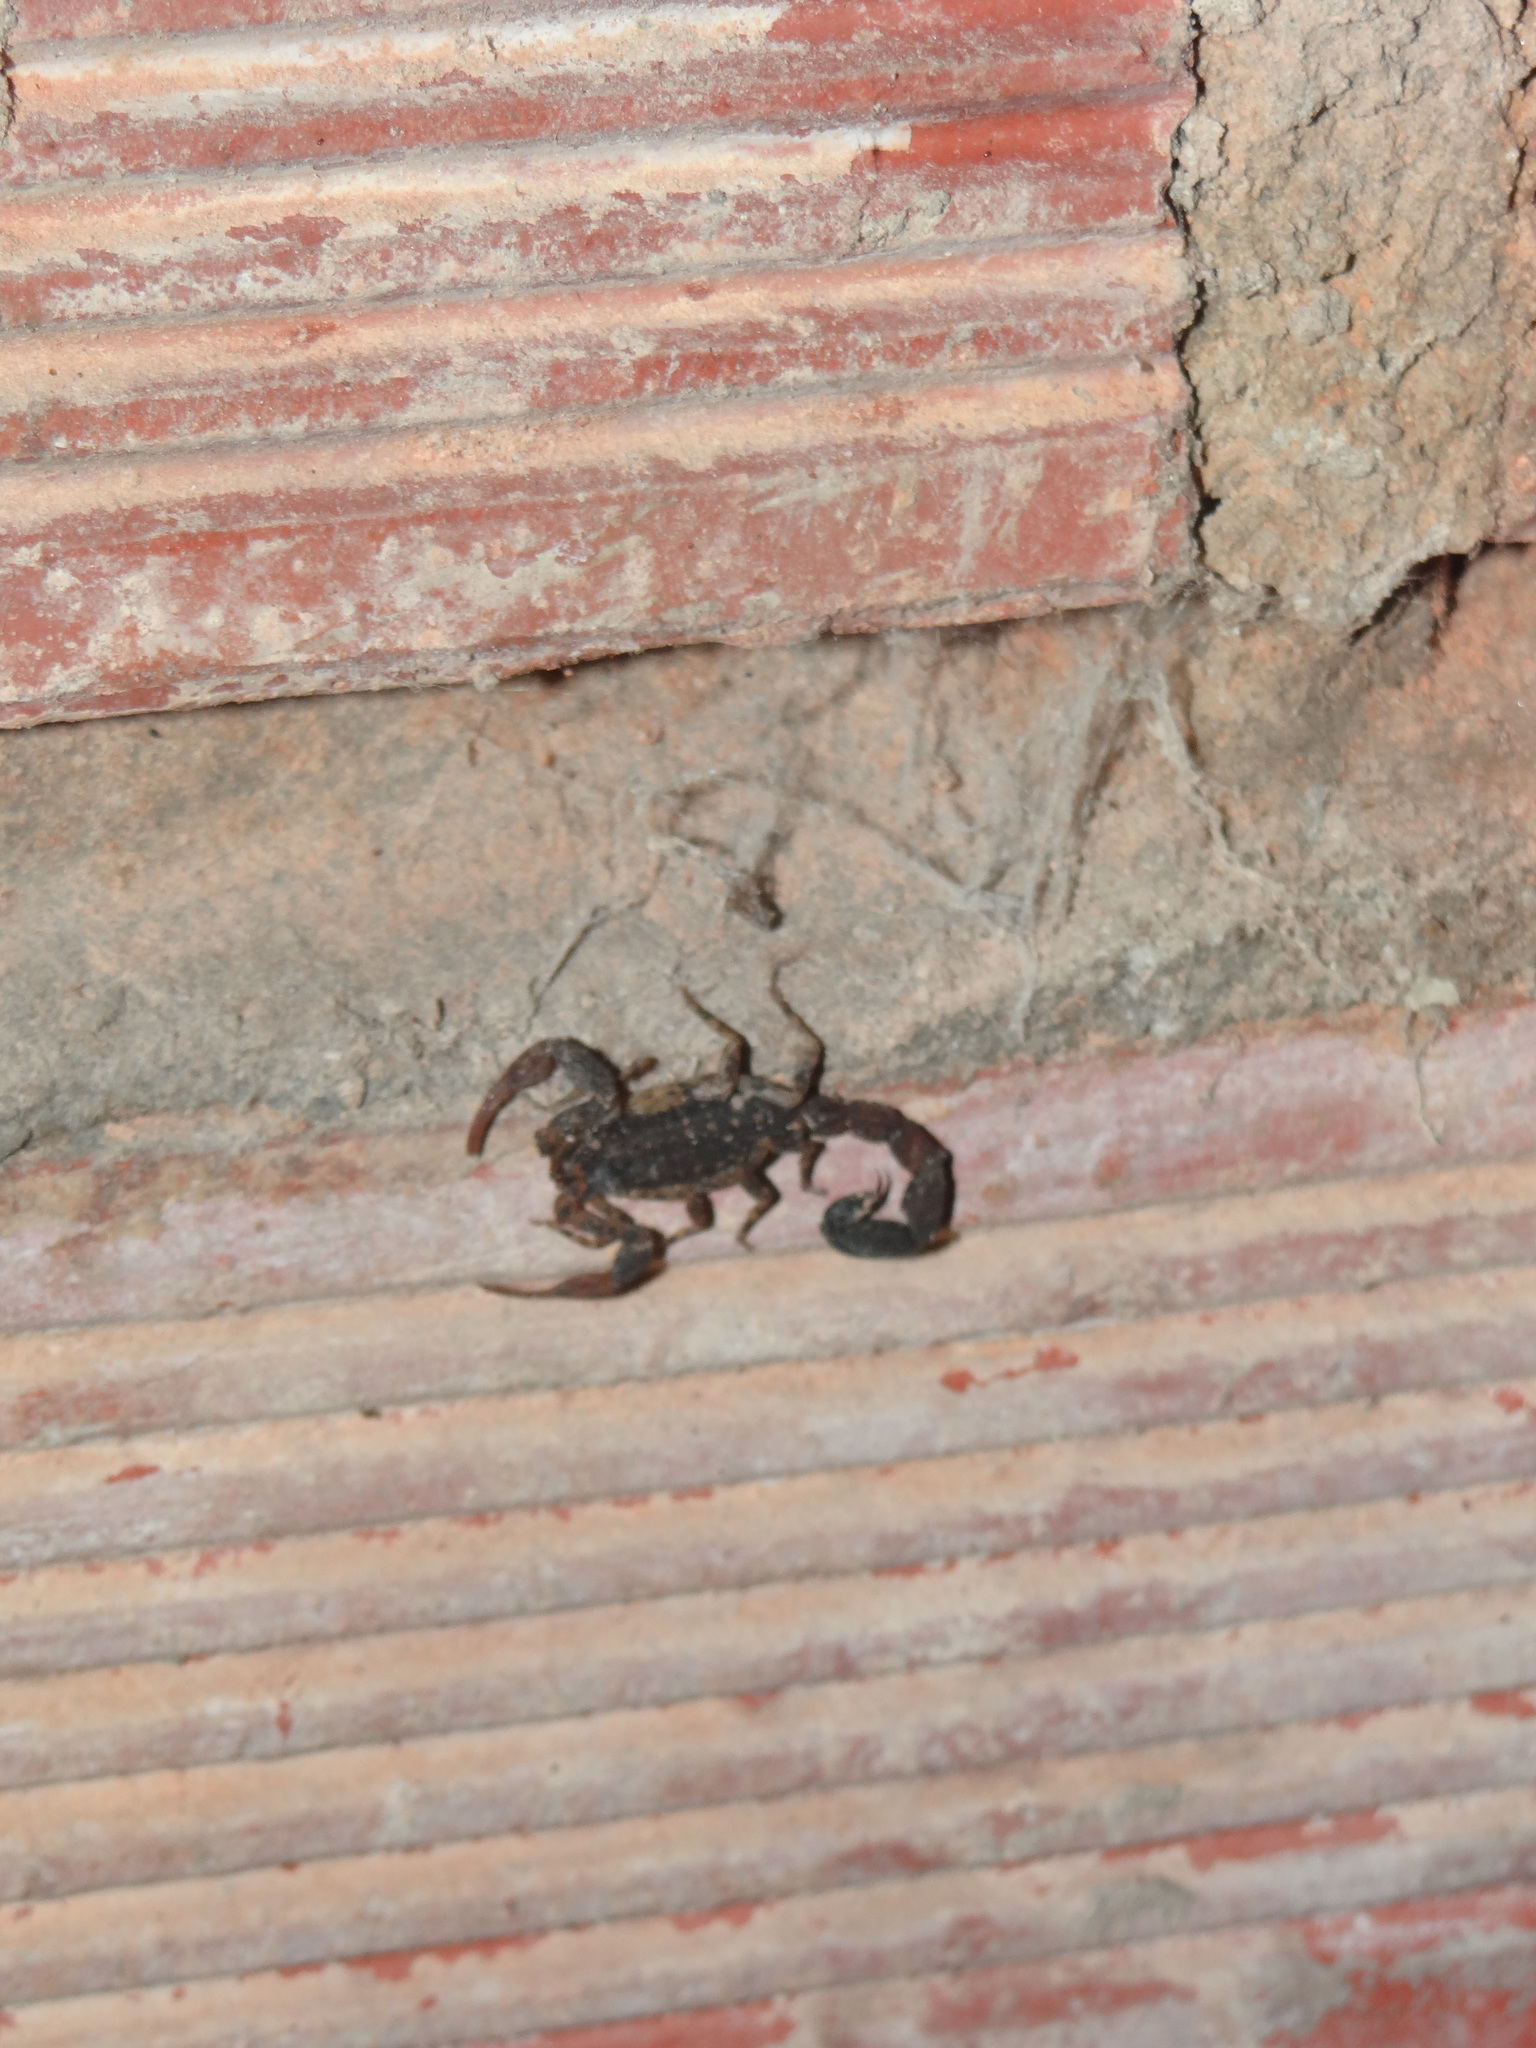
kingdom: Animalia
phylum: Arthropoda
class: Arachnida
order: Scorpiones
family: Buthidae
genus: Tityus
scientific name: Tityus bastosi
